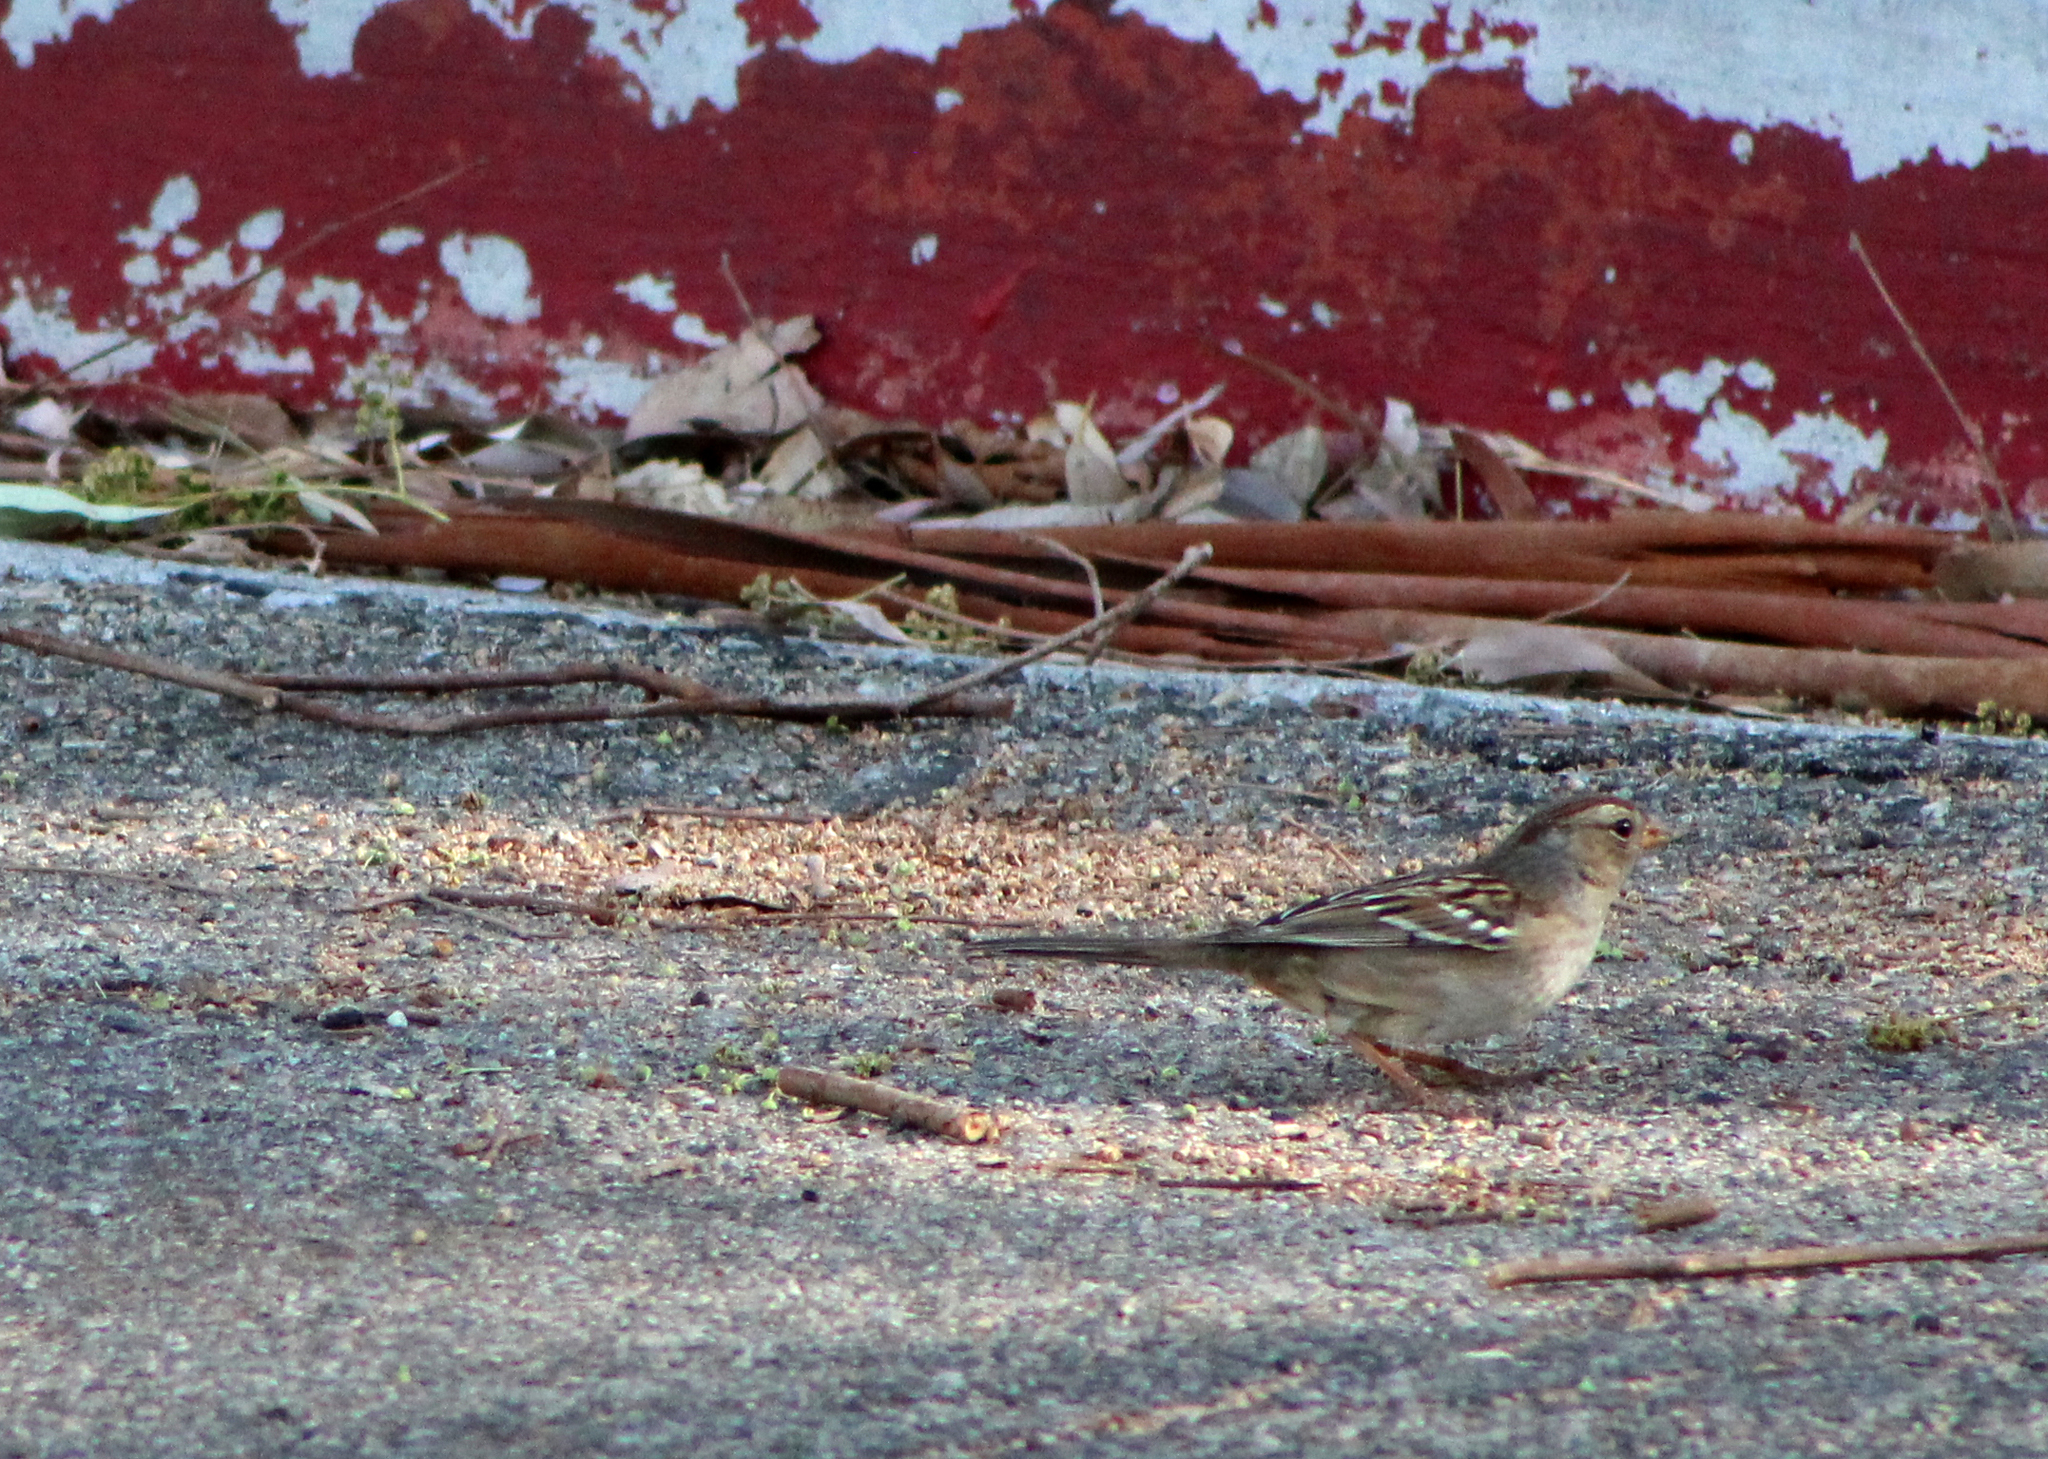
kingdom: Animalia
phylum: Chordata
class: Aves
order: Passeriformes
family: Passerellidae
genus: Zonotrichia
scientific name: Zonotrichia leucophrys
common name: White-crowned sparrow
